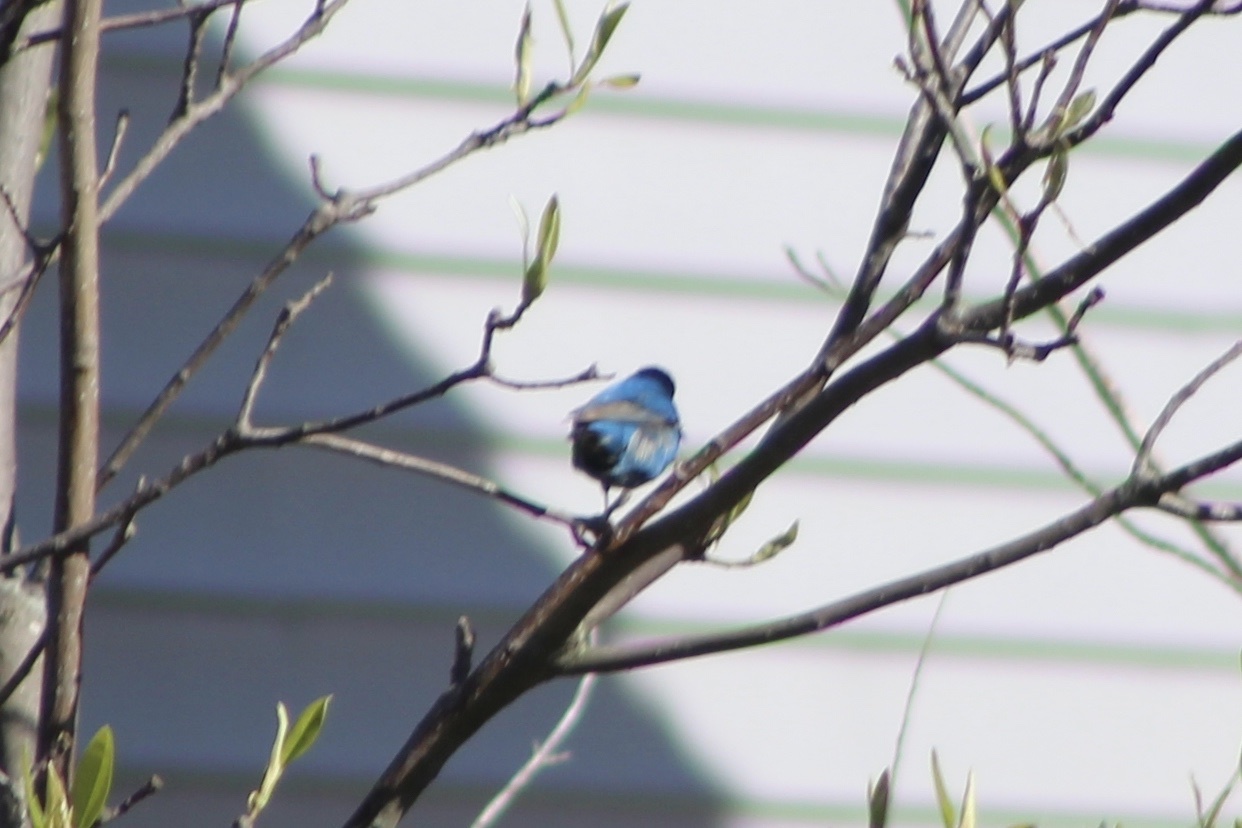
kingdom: Animalia
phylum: Chordata
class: Aves
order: Passeriformes
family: Cardinalidae
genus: Passerina
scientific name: Passerina cyanea
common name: Indigo bunting
